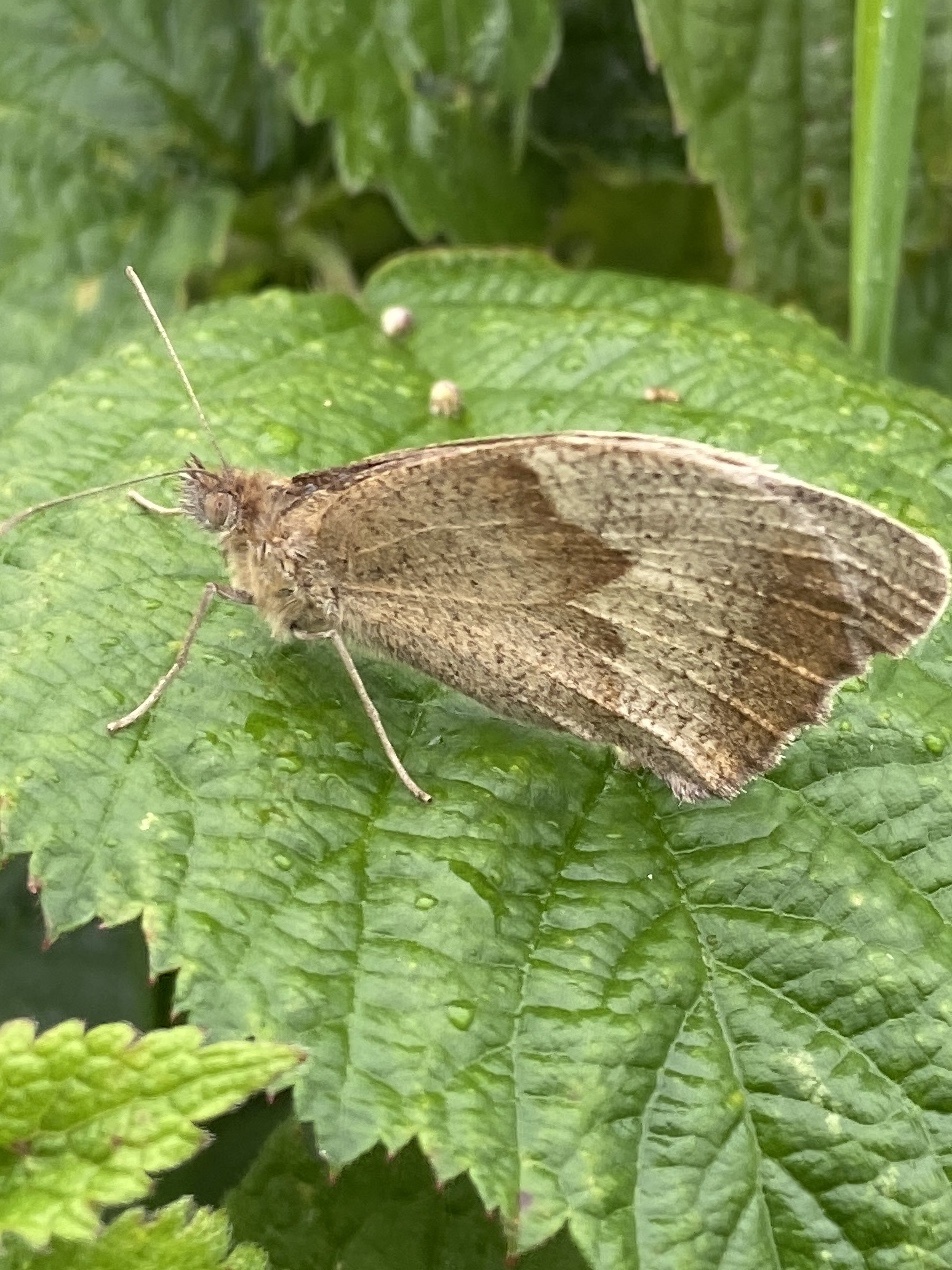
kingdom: Animalia
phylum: Arthropoda
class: Insecta
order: Lepidoptera
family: Nymphalidae
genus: Maniola
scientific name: Maniola jurtina
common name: Meadow brown
